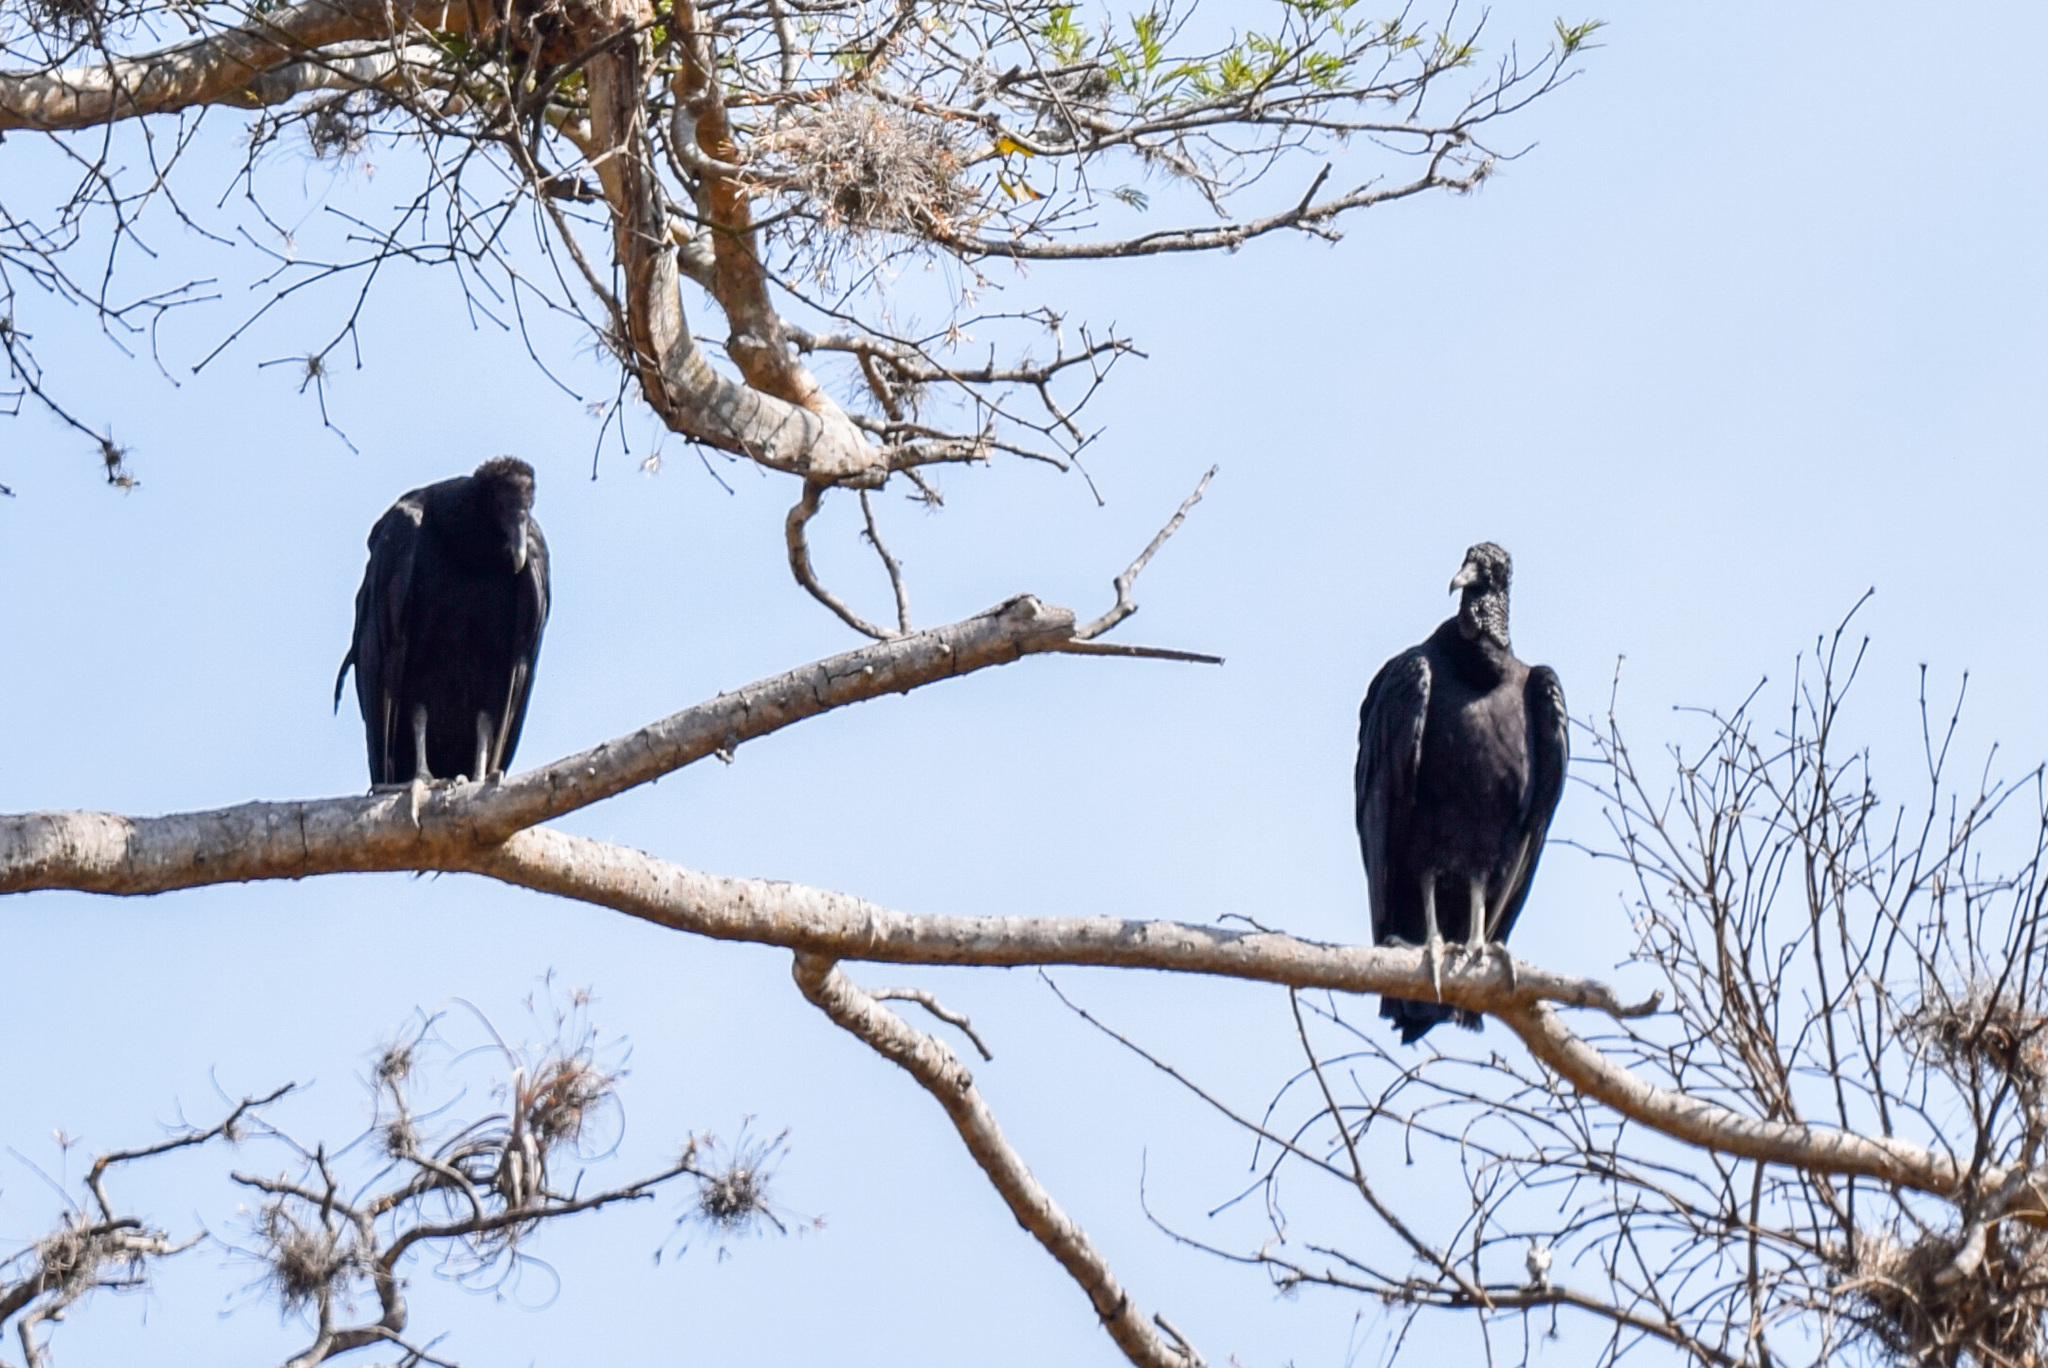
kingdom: Animalia
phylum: Chordata
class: Aves
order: Accipitriformes
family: Cathartidae
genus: Coragyps
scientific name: Coragyps atratus
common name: Black vulture
